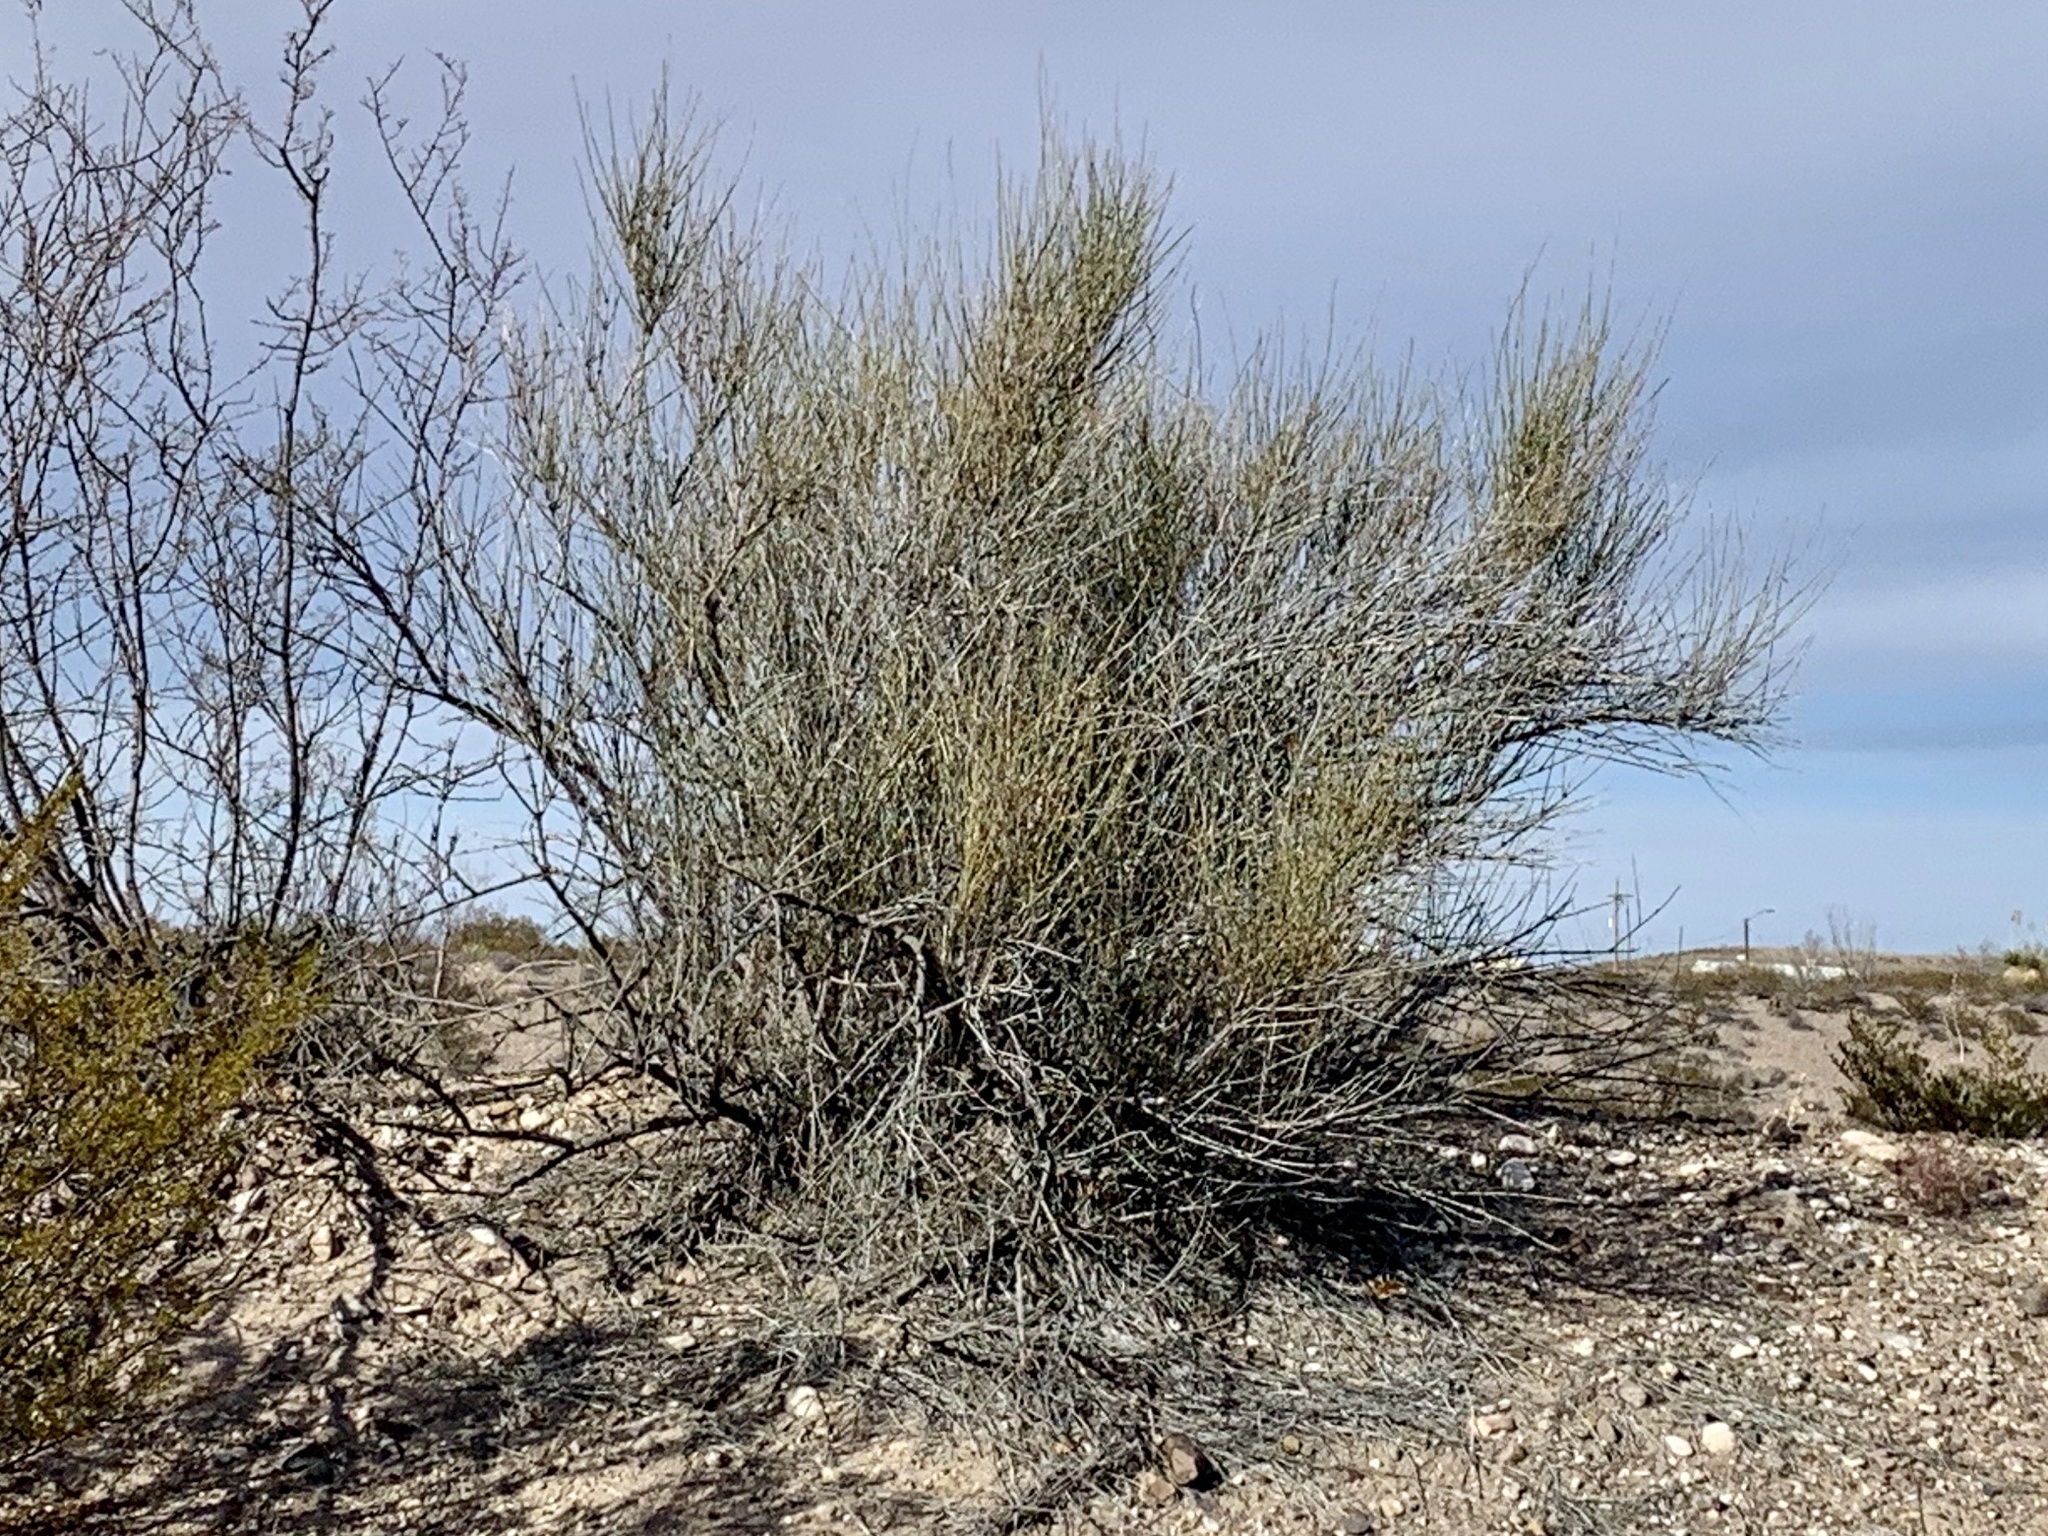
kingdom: Plantae
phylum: Tracheophyta
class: Gnetopsida
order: Ephedrales
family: Ephedraceae
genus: Ephedra
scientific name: Ephedra trifurca
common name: Mexican-tea
